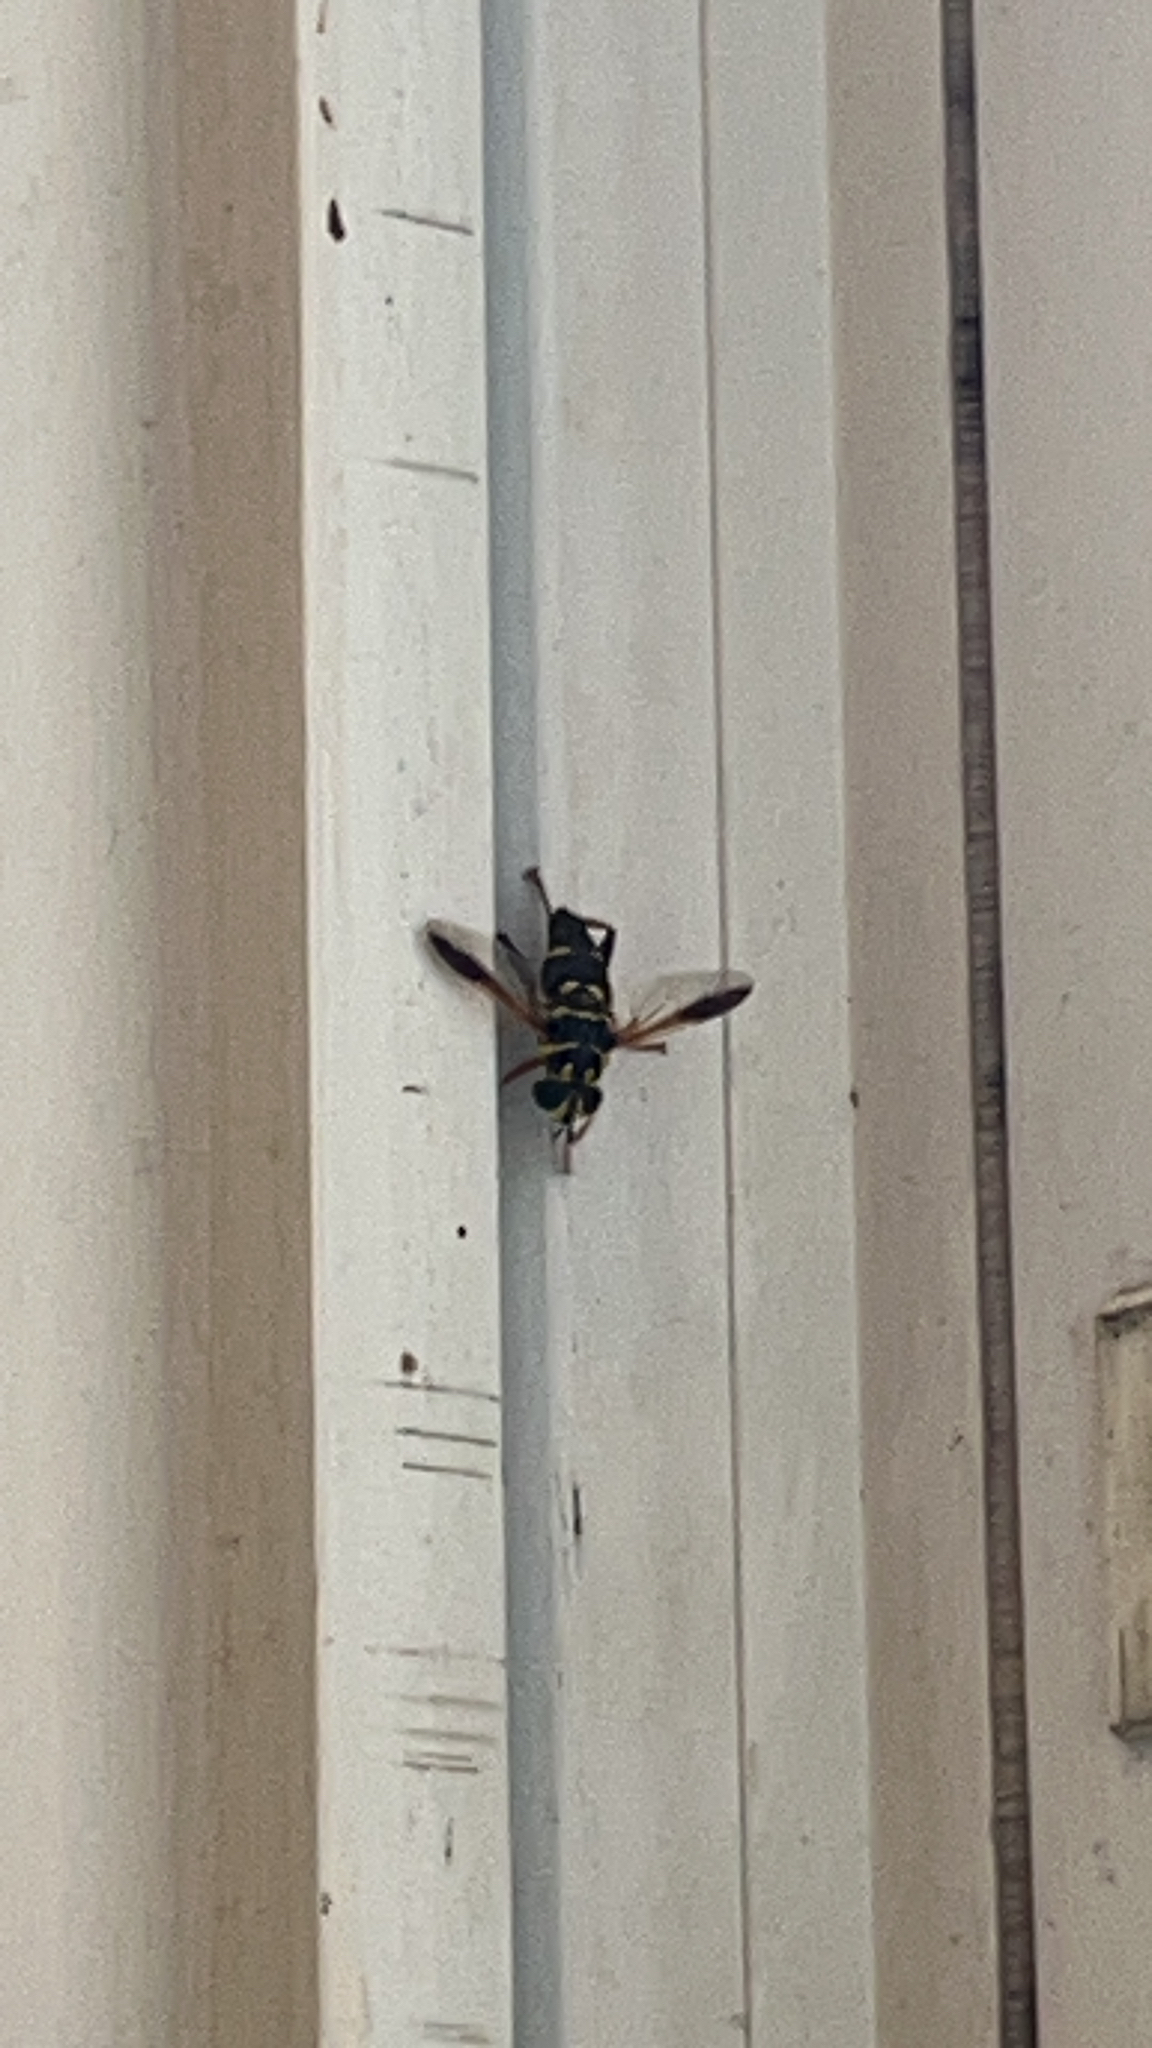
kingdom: Animalia
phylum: Arthropoda
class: Insecta
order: Diptera
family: Syrphidae
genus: Meromacrus
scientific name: Meromacrus acutus
